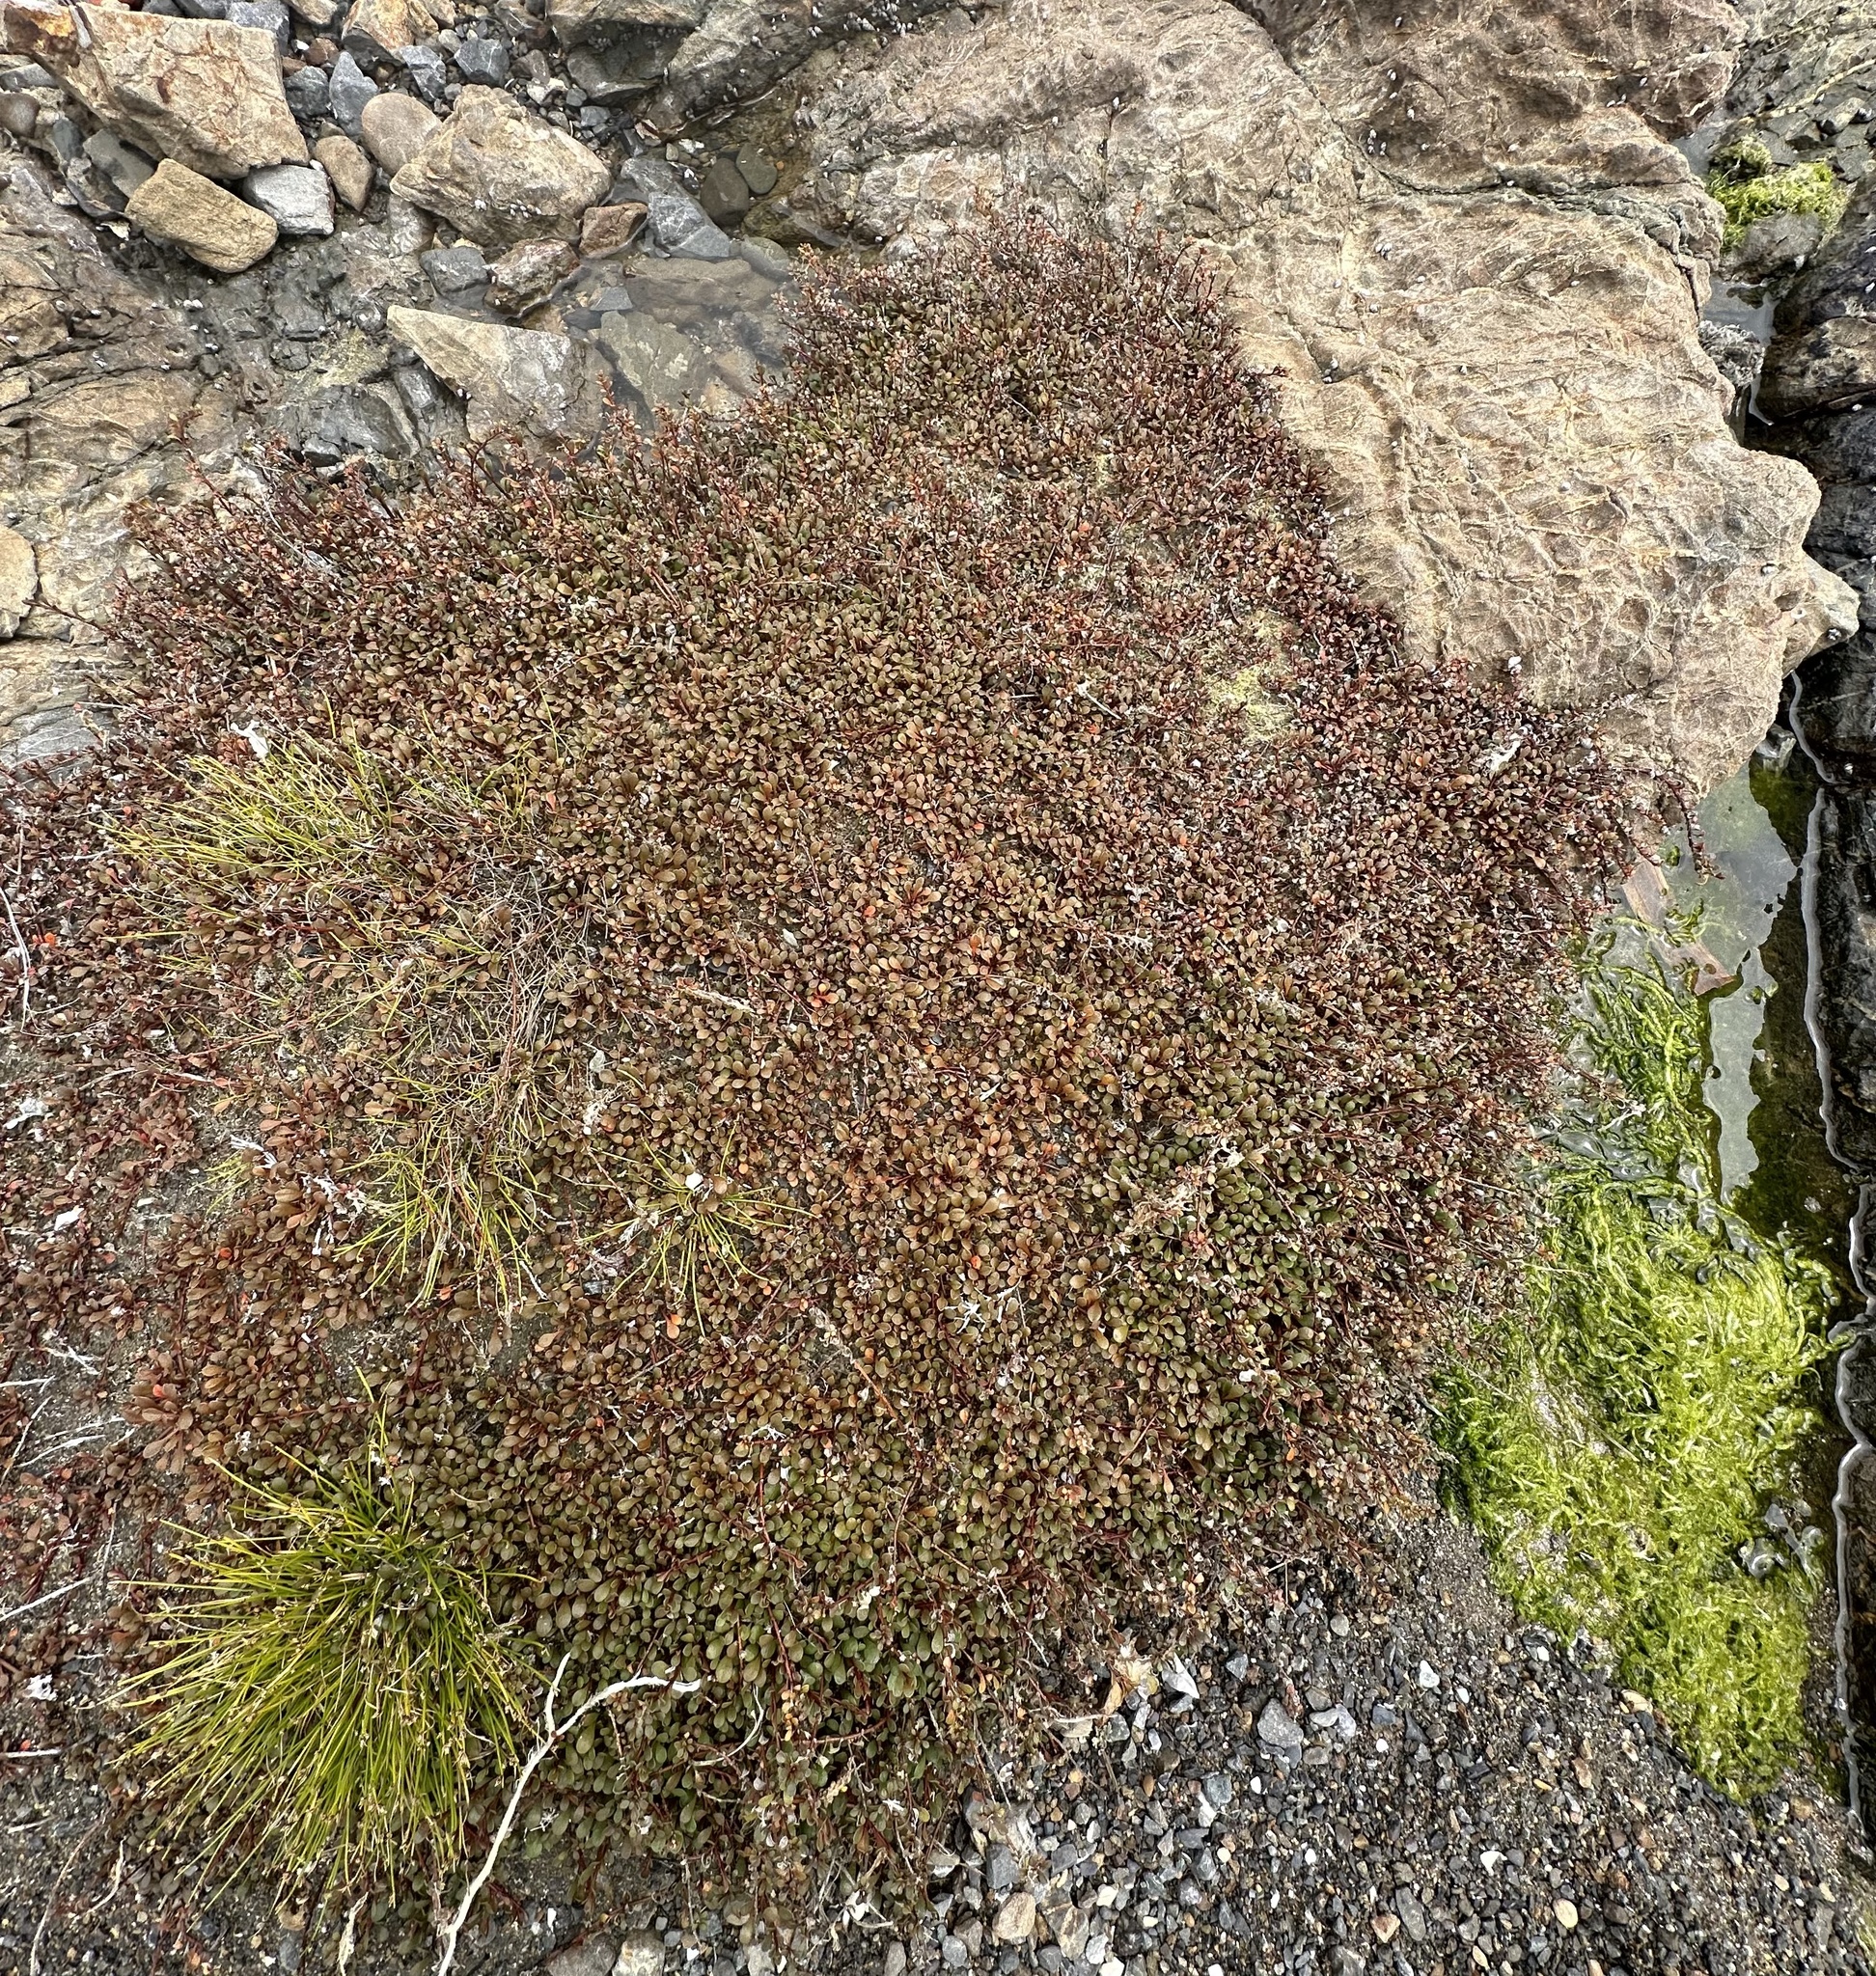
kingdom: Plantae
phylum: Tracheophyta
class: Magnoliopsida
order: Ericales
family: Primulaceae
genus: Samolus
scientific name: Samolus repens
